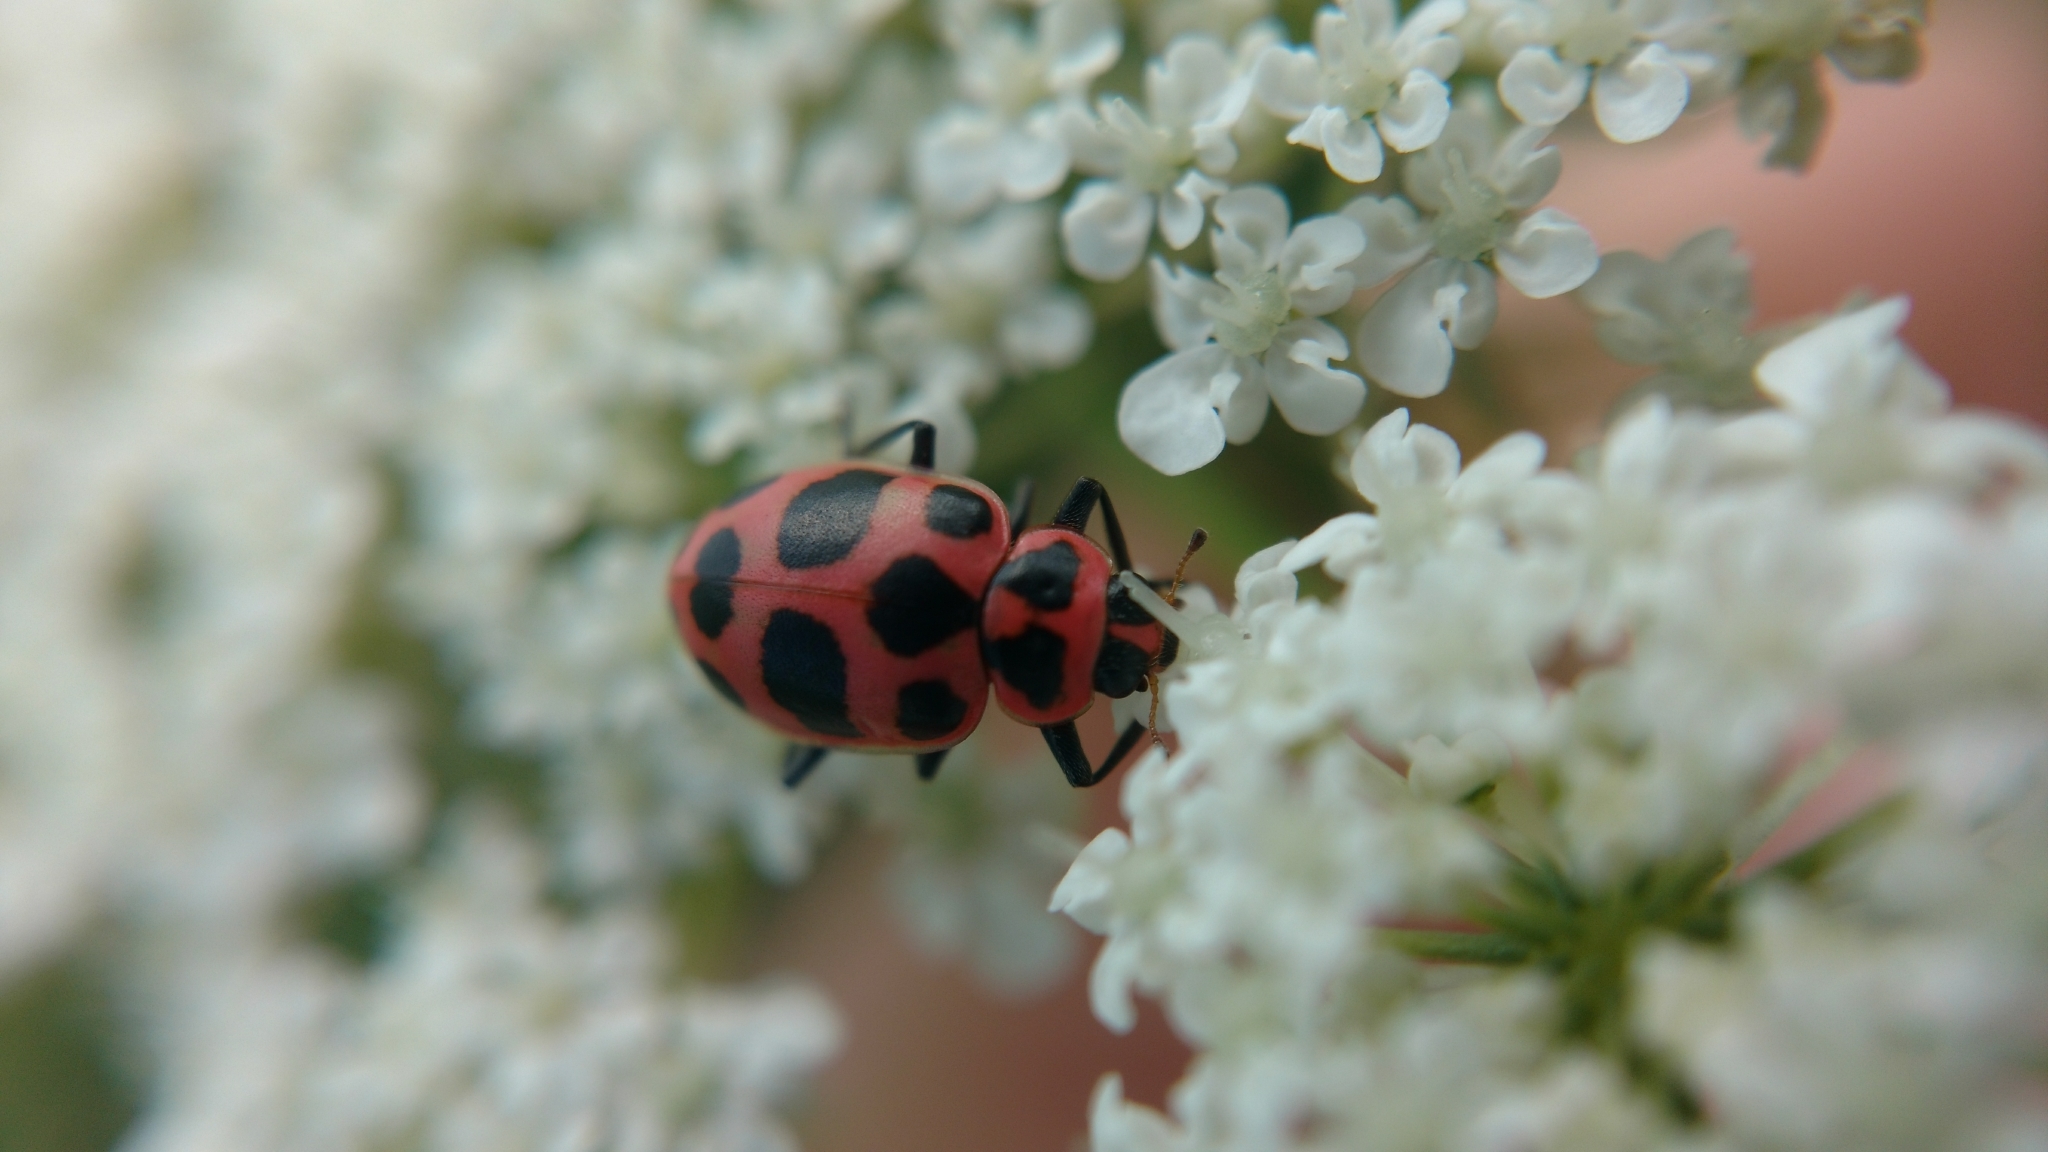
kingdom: Animalia
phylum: Arthropoda
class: Insecta
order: Coleoptera
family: Coccinellidae
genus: Coleomegilla
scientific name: Coleomegilla maculata
